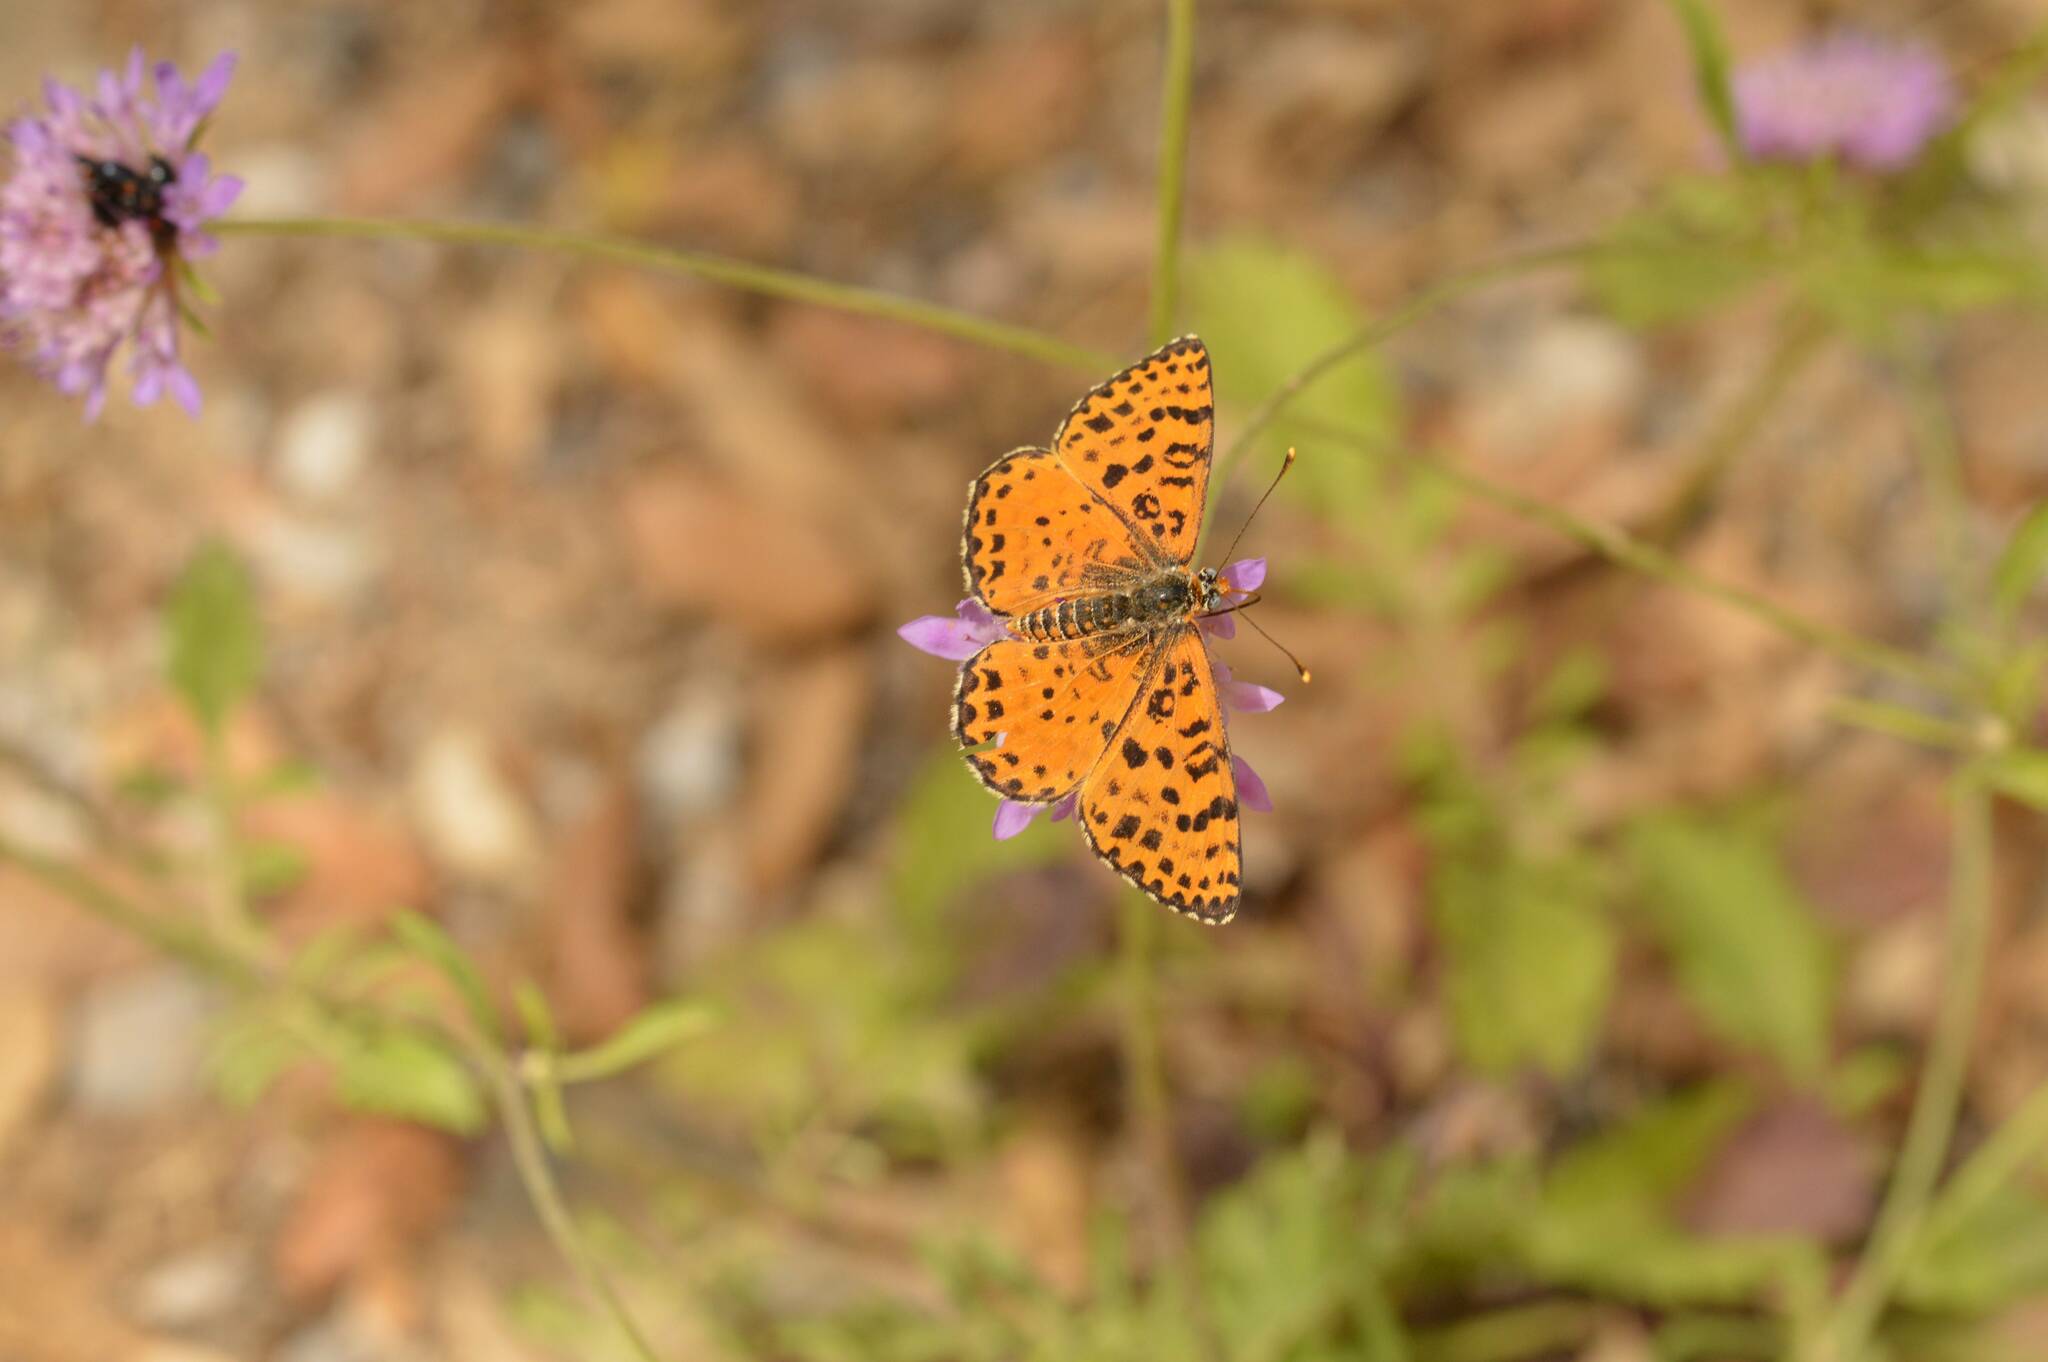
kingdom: Animalia
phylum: Arthropoda
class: Insecta
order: Lepidoptera
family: Nymphalidae
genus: Melitaea
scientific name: Melitaea didyma
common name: Spotted fritillary
